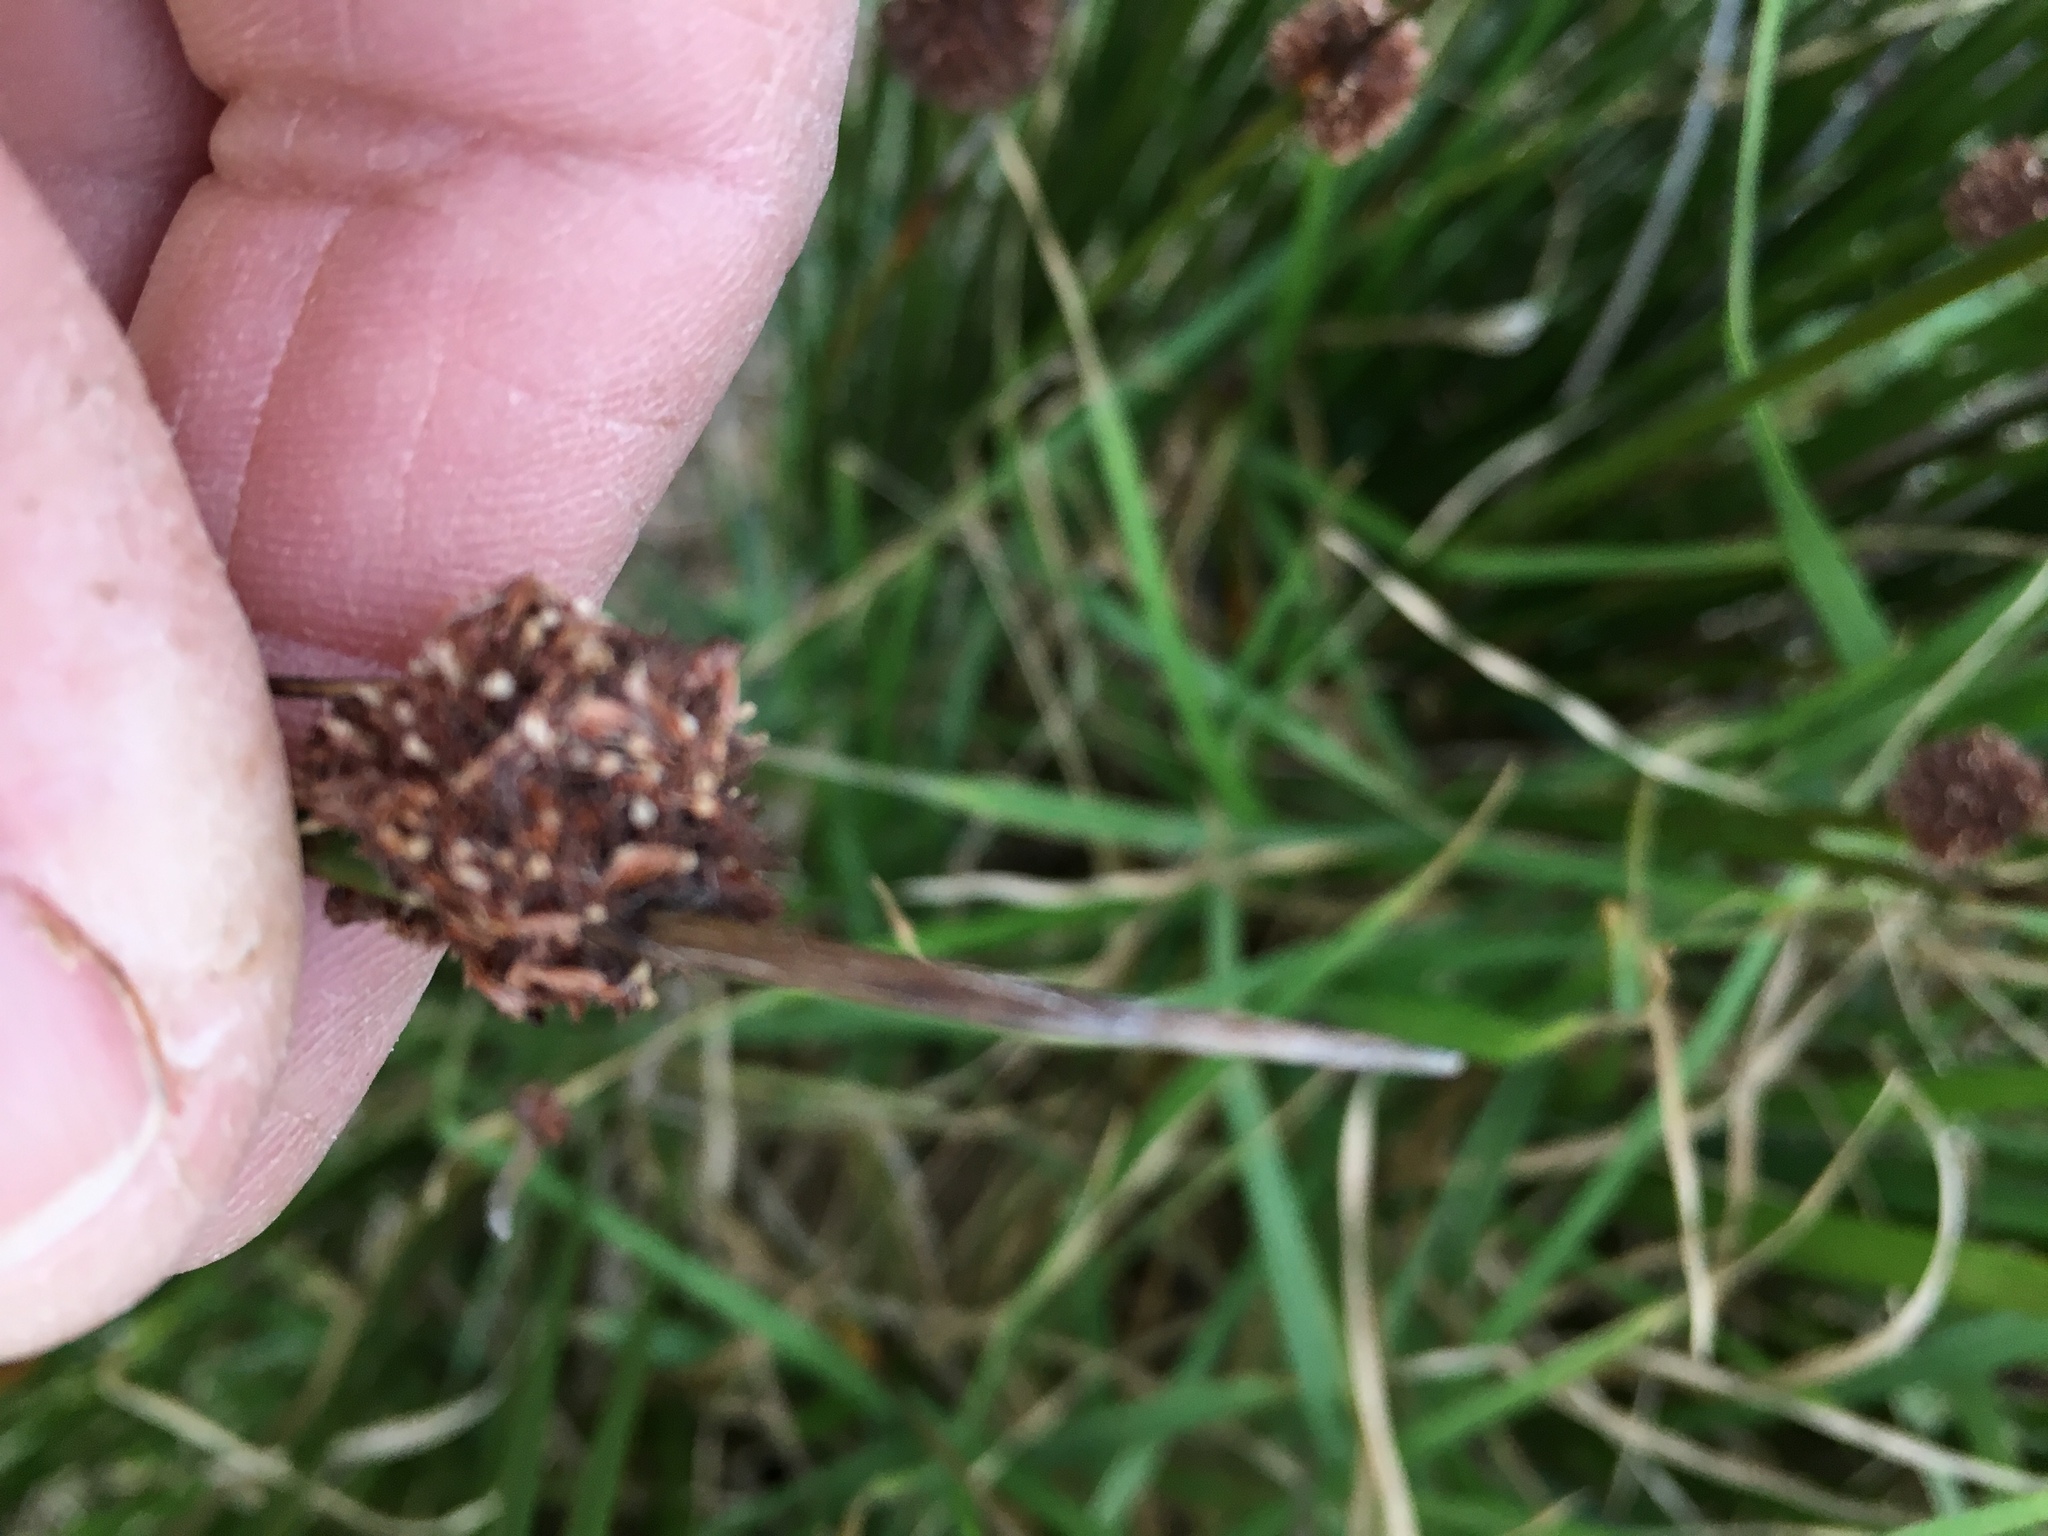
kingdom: Plantae
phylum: Tracheophyta
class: Liliopsida
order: Poales
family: Cyperaceae
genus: Ficinia
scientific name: Ficinia nodosa
